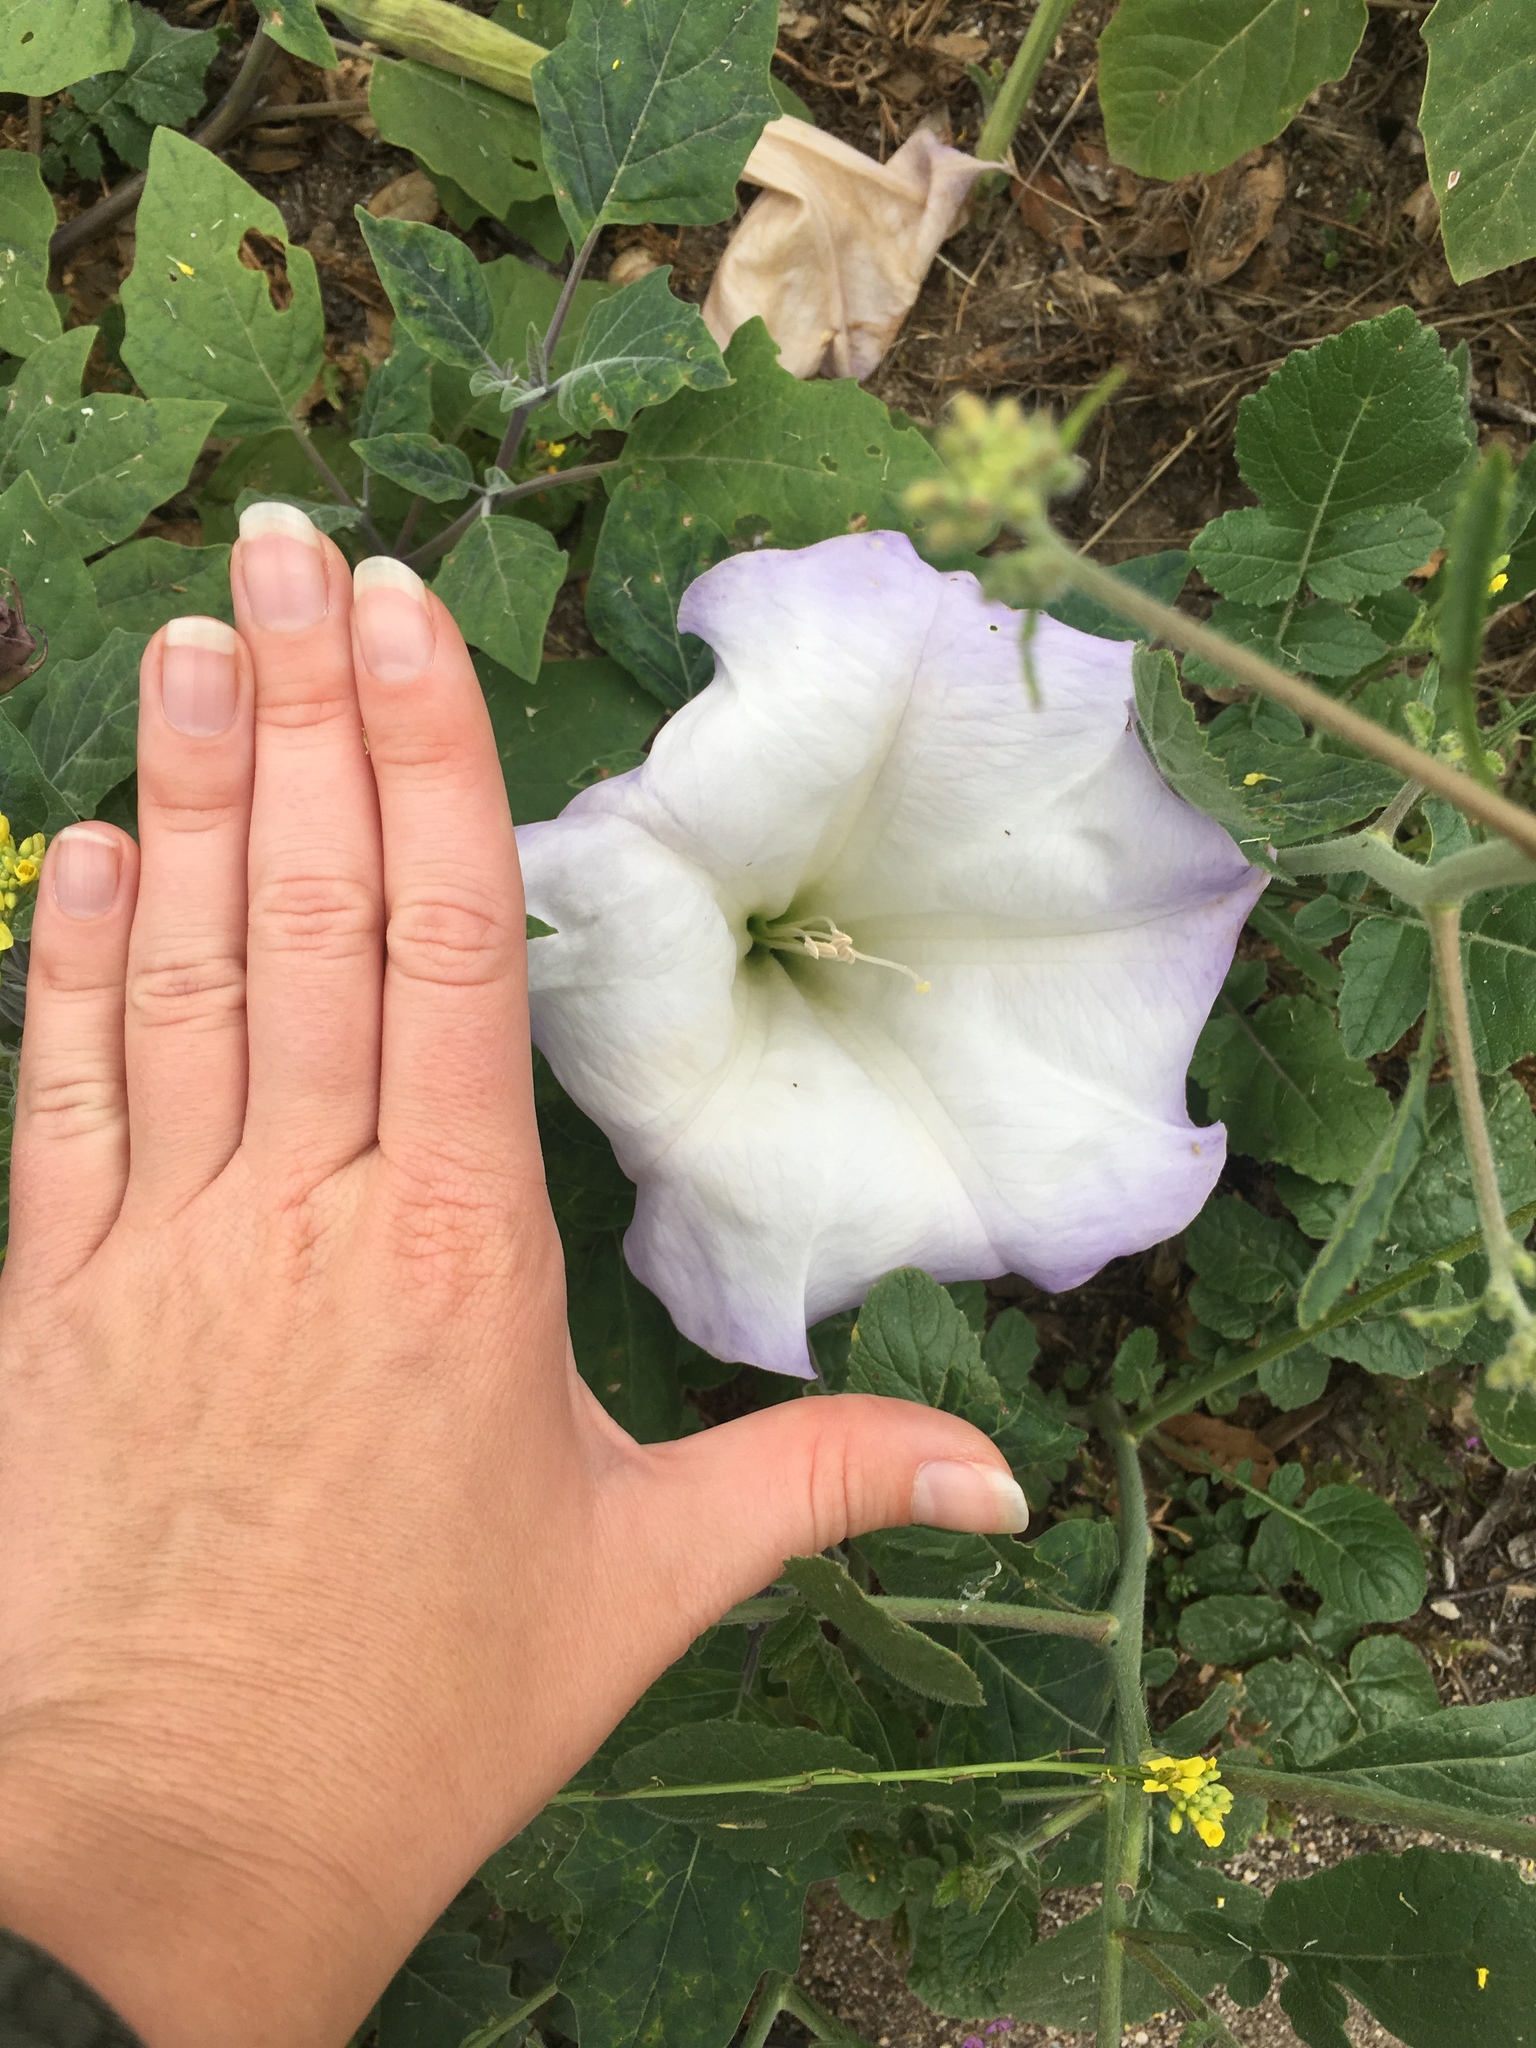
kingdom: Plantae
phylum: Tracheophyta
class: Magnoliopsida
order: Solanales
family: Solanaceae
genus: Datura
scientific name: Datura wrightii
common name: Sacred thorn-apple
